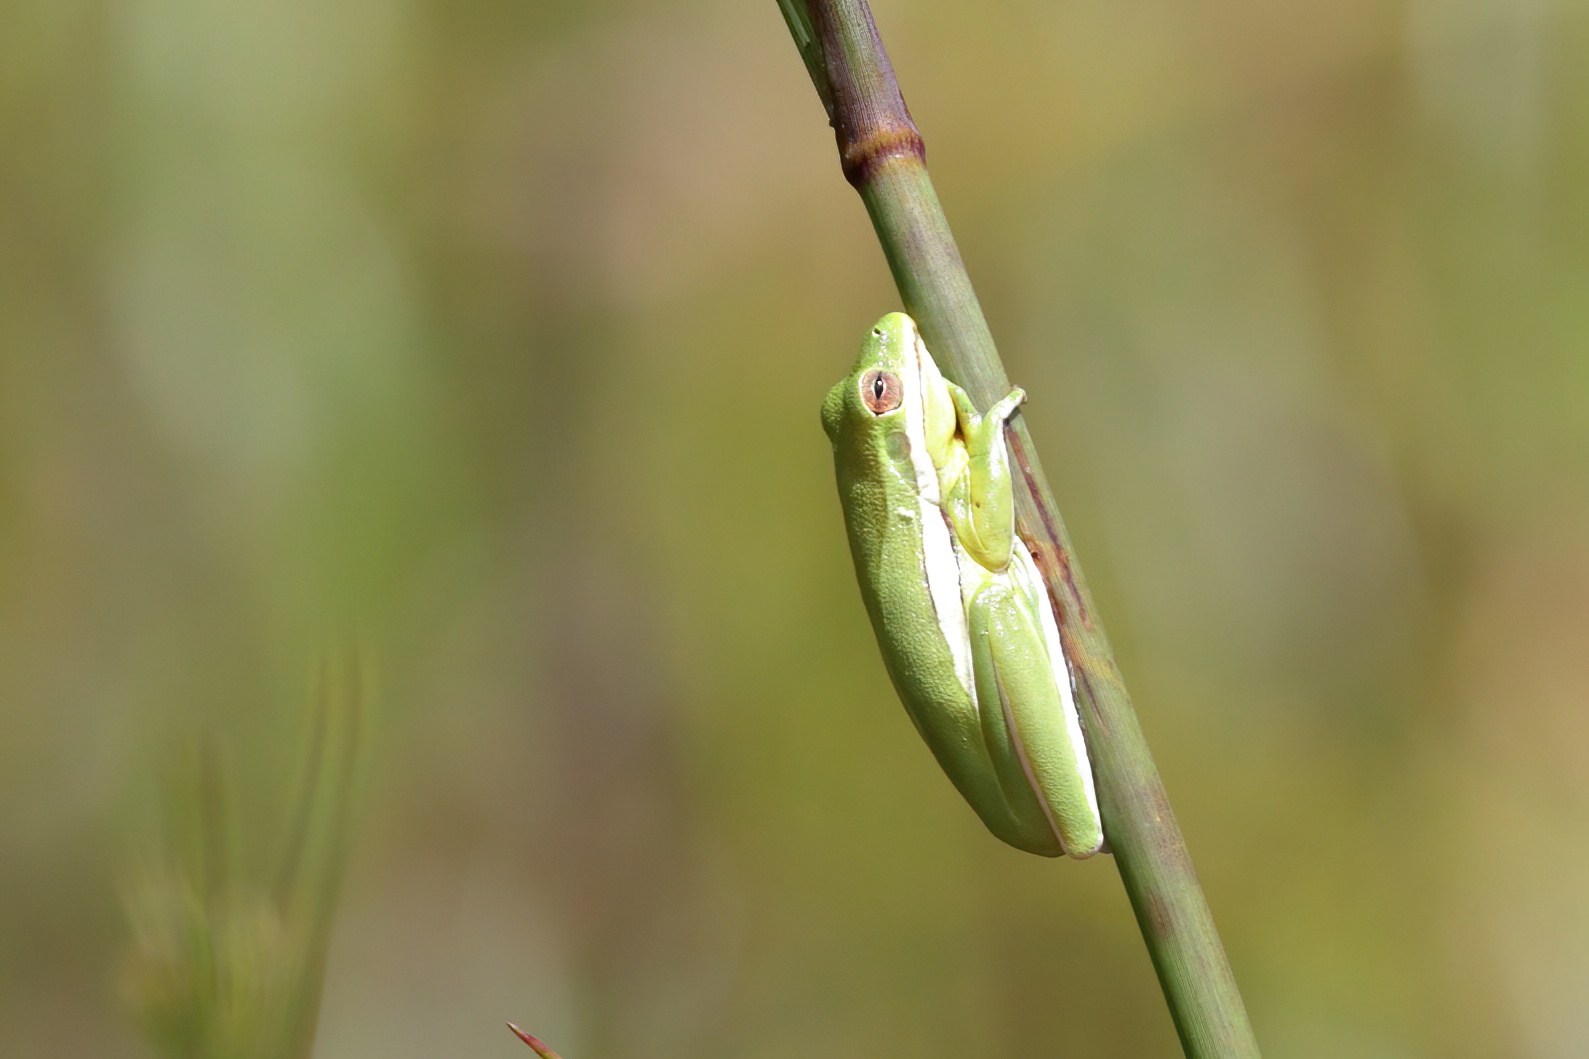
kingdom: Animalia
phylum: Chordata
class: Amphibia
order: Anura
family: Hylidae
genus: Dryophytes
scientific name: Dryophytes cinereus
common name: Green treefrog
